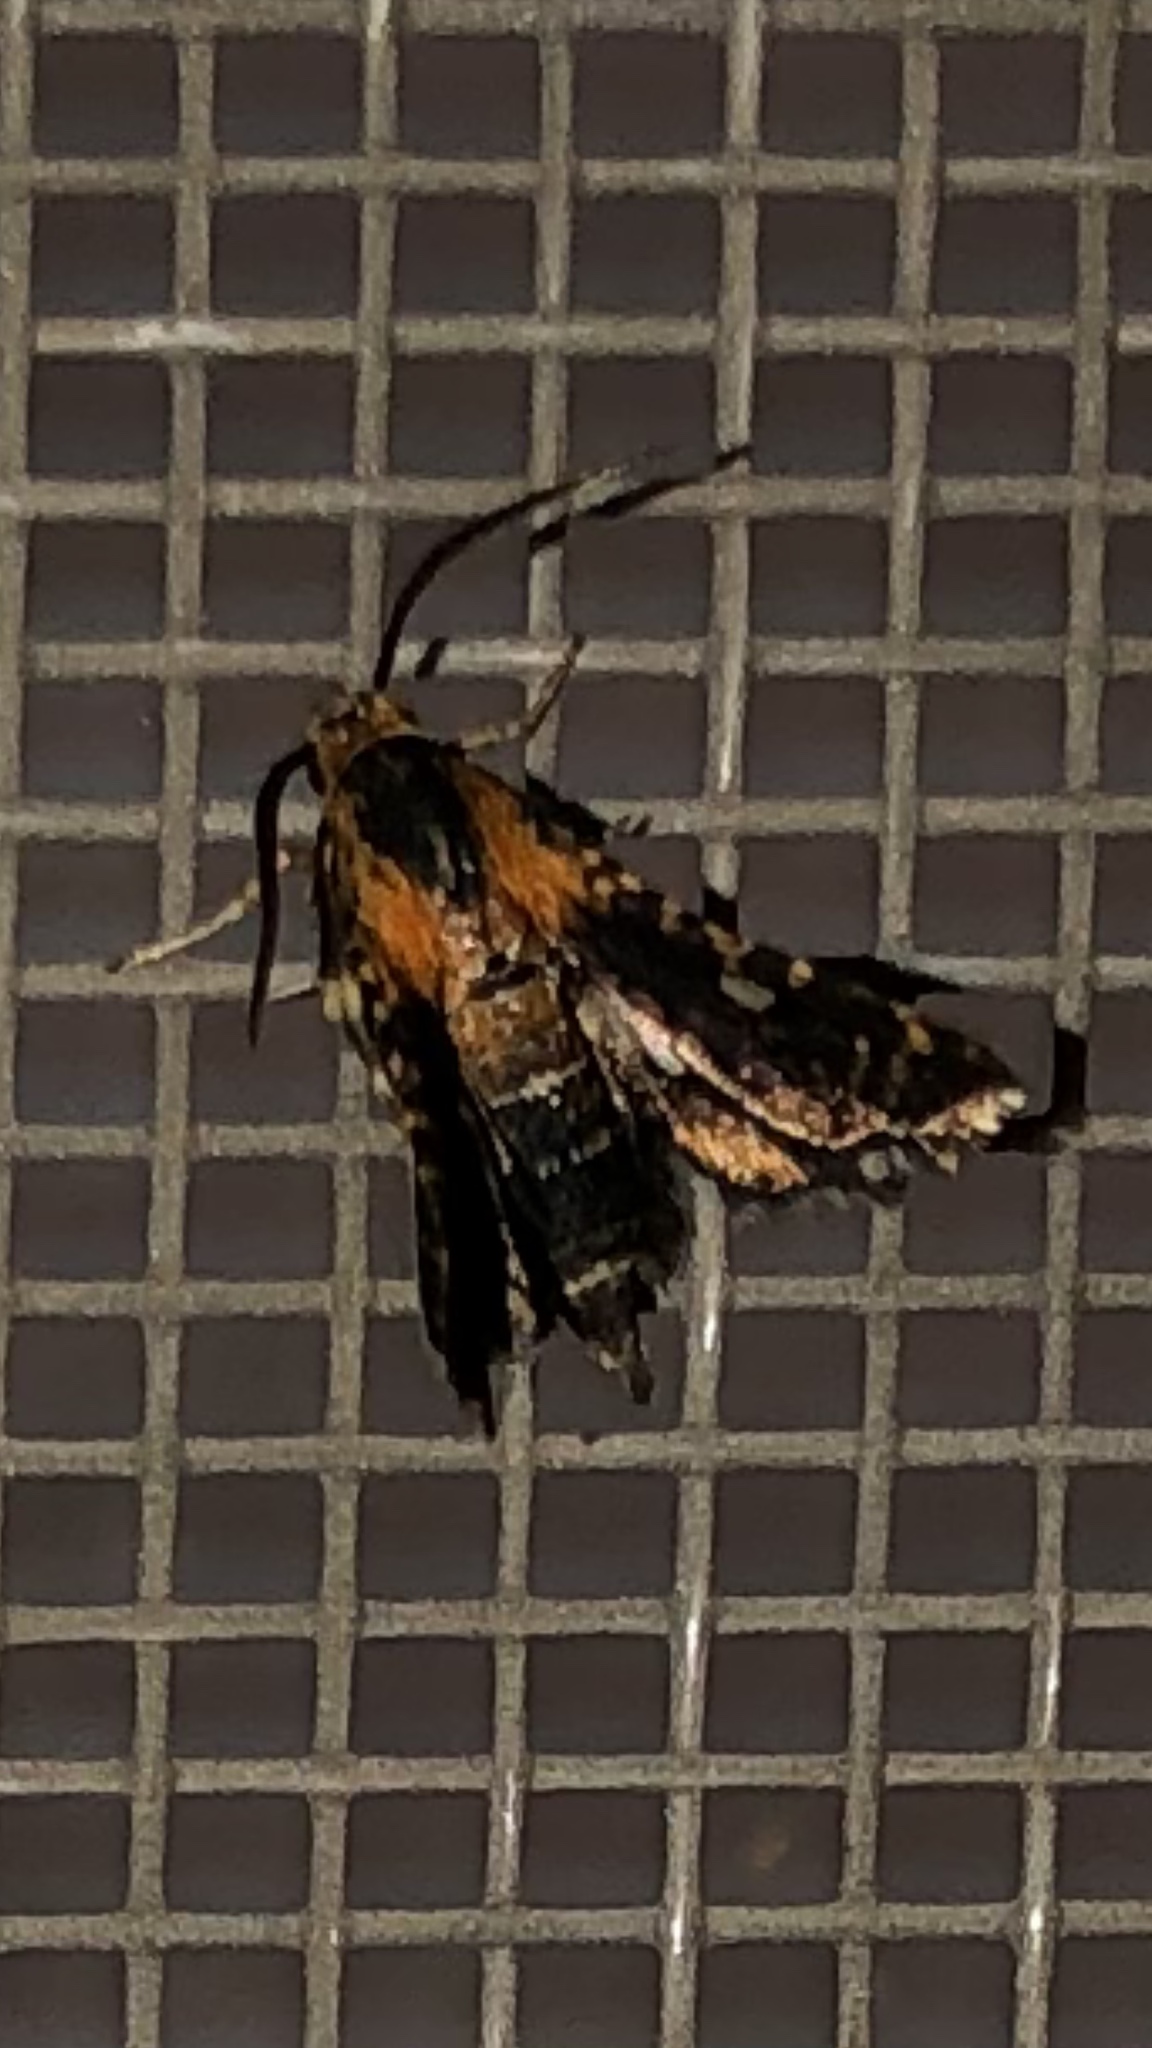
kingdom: Animalia
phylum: Arthropoda
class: Insecta
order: Lepidoptera
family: Thyrididae
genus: Thyris
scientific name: Thyris maculata
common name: Spotted thyris moth
